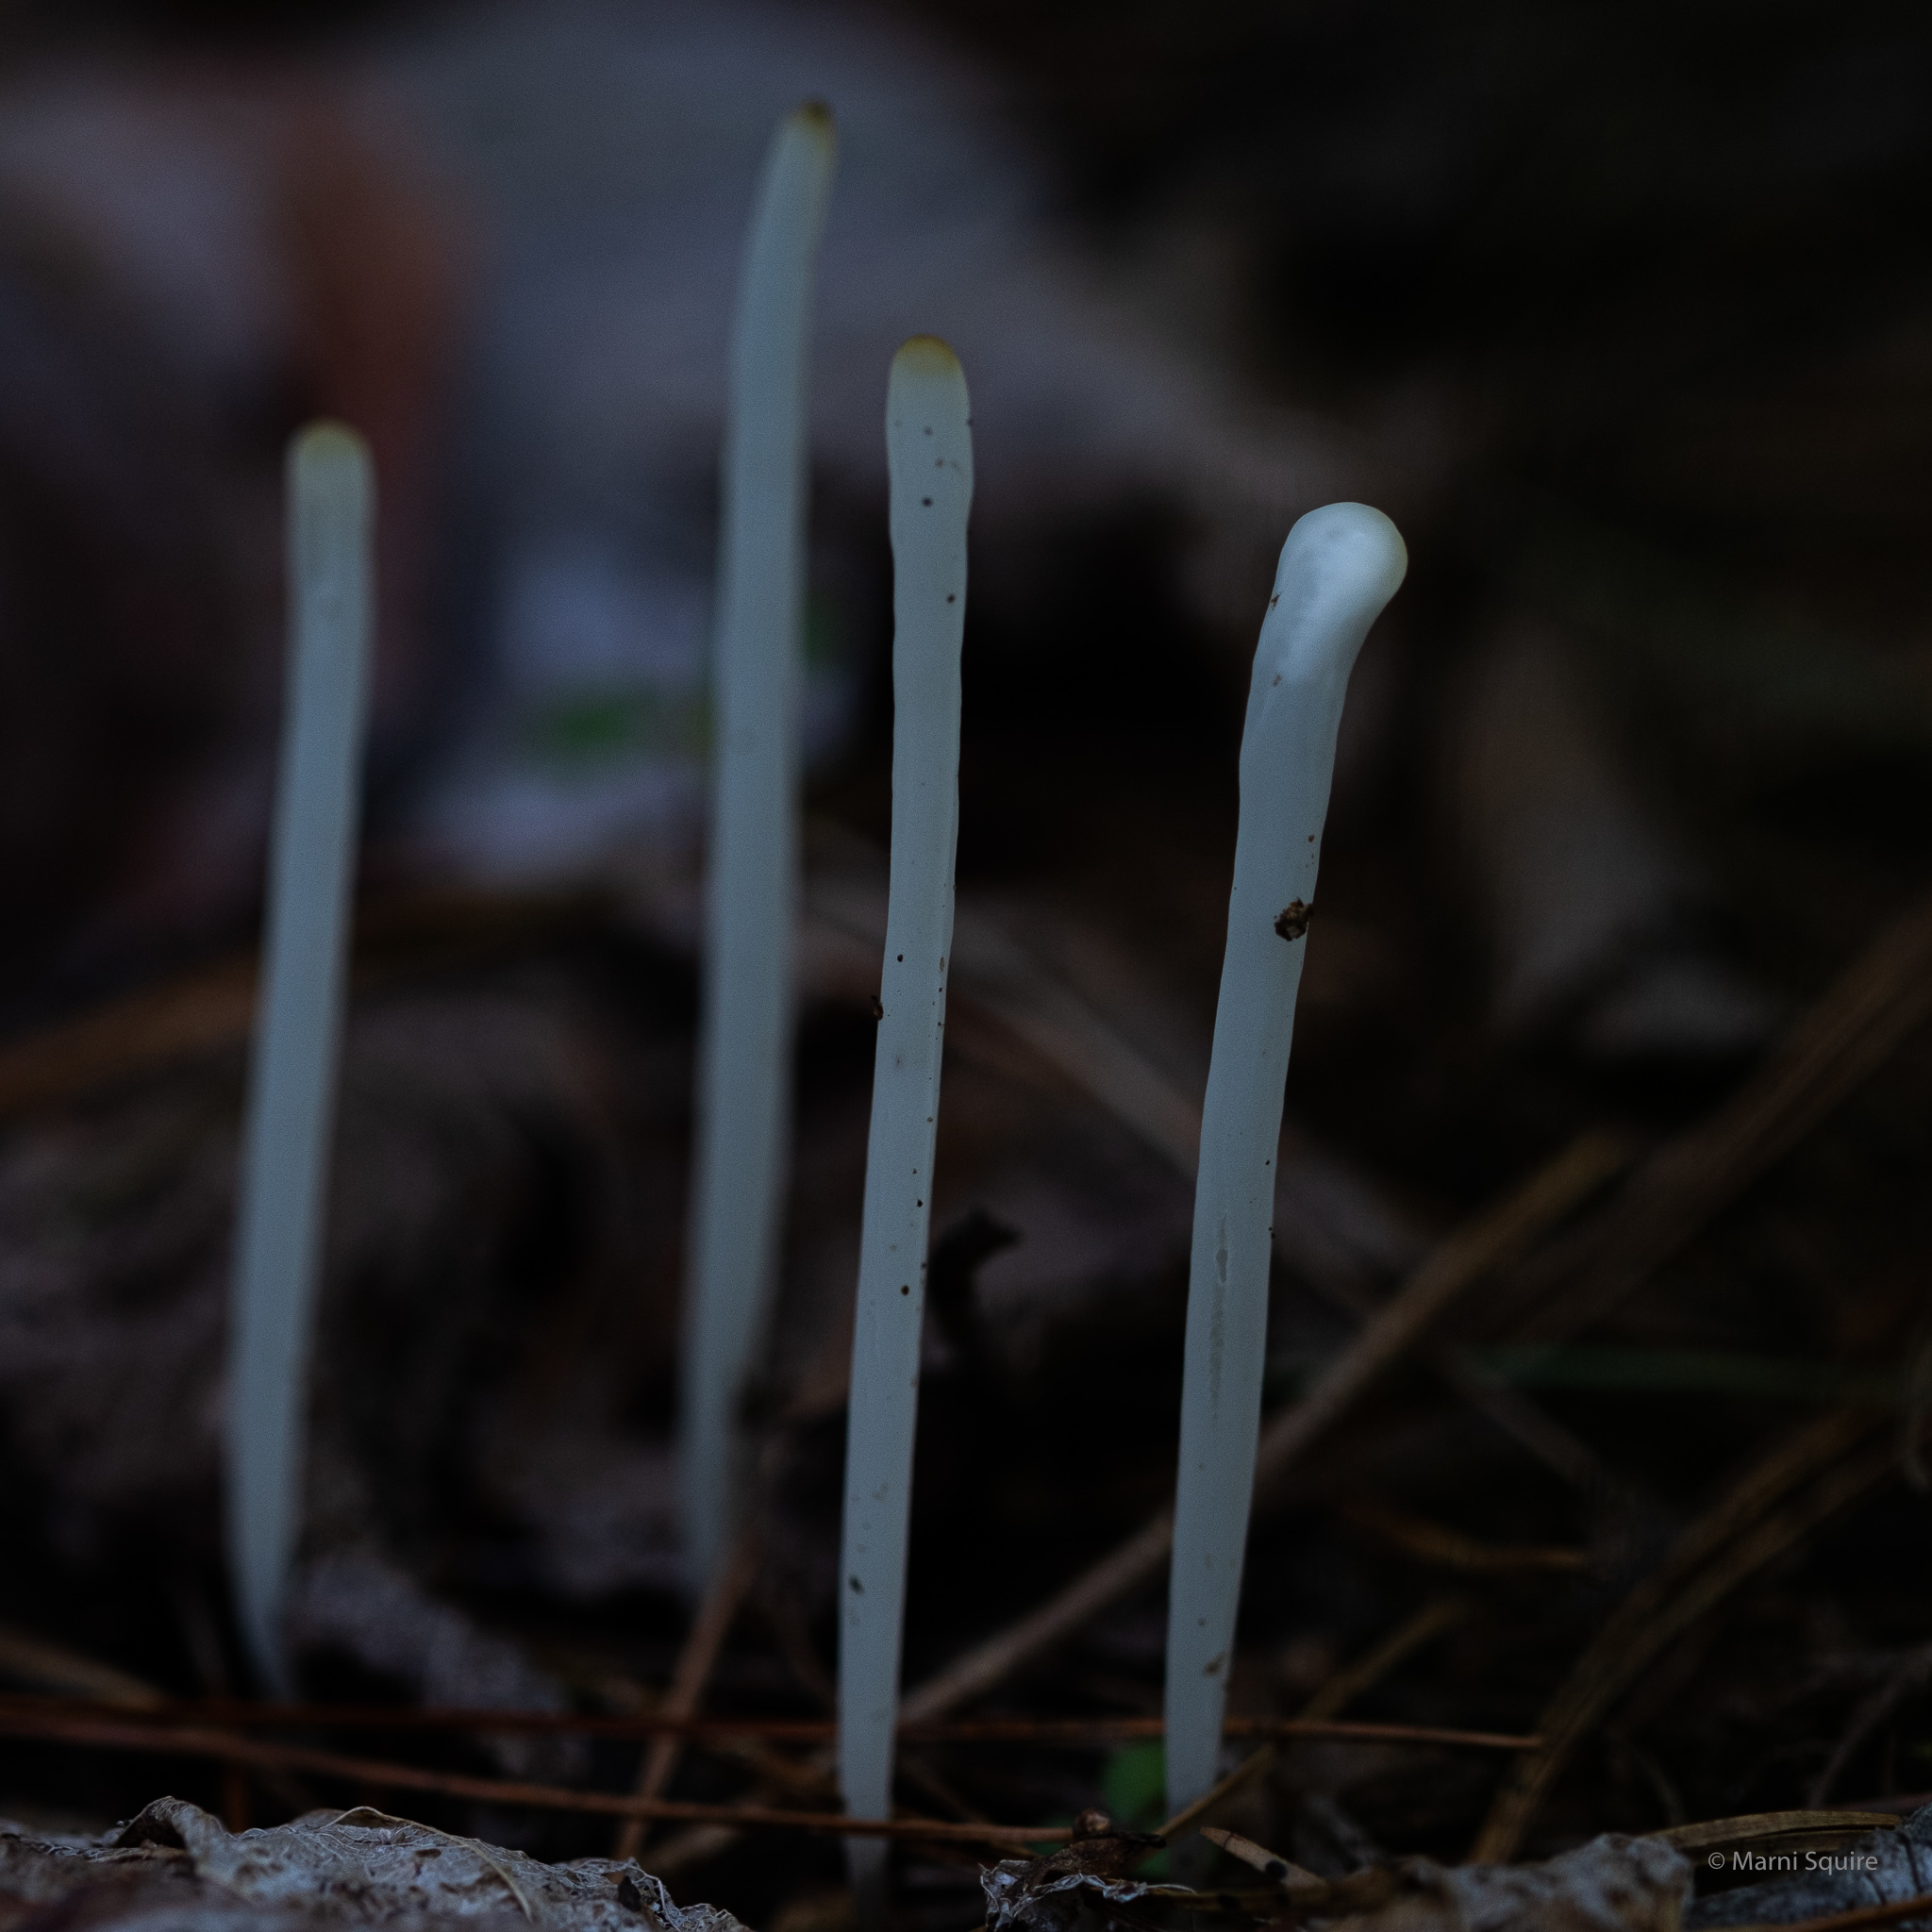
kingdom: Fungi
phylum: Basidiomycota
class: Agaricomycetes
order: Agaricales
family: Clavariaceae
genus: Clavaria
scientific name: Clavaria fragilis
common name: White spindles
